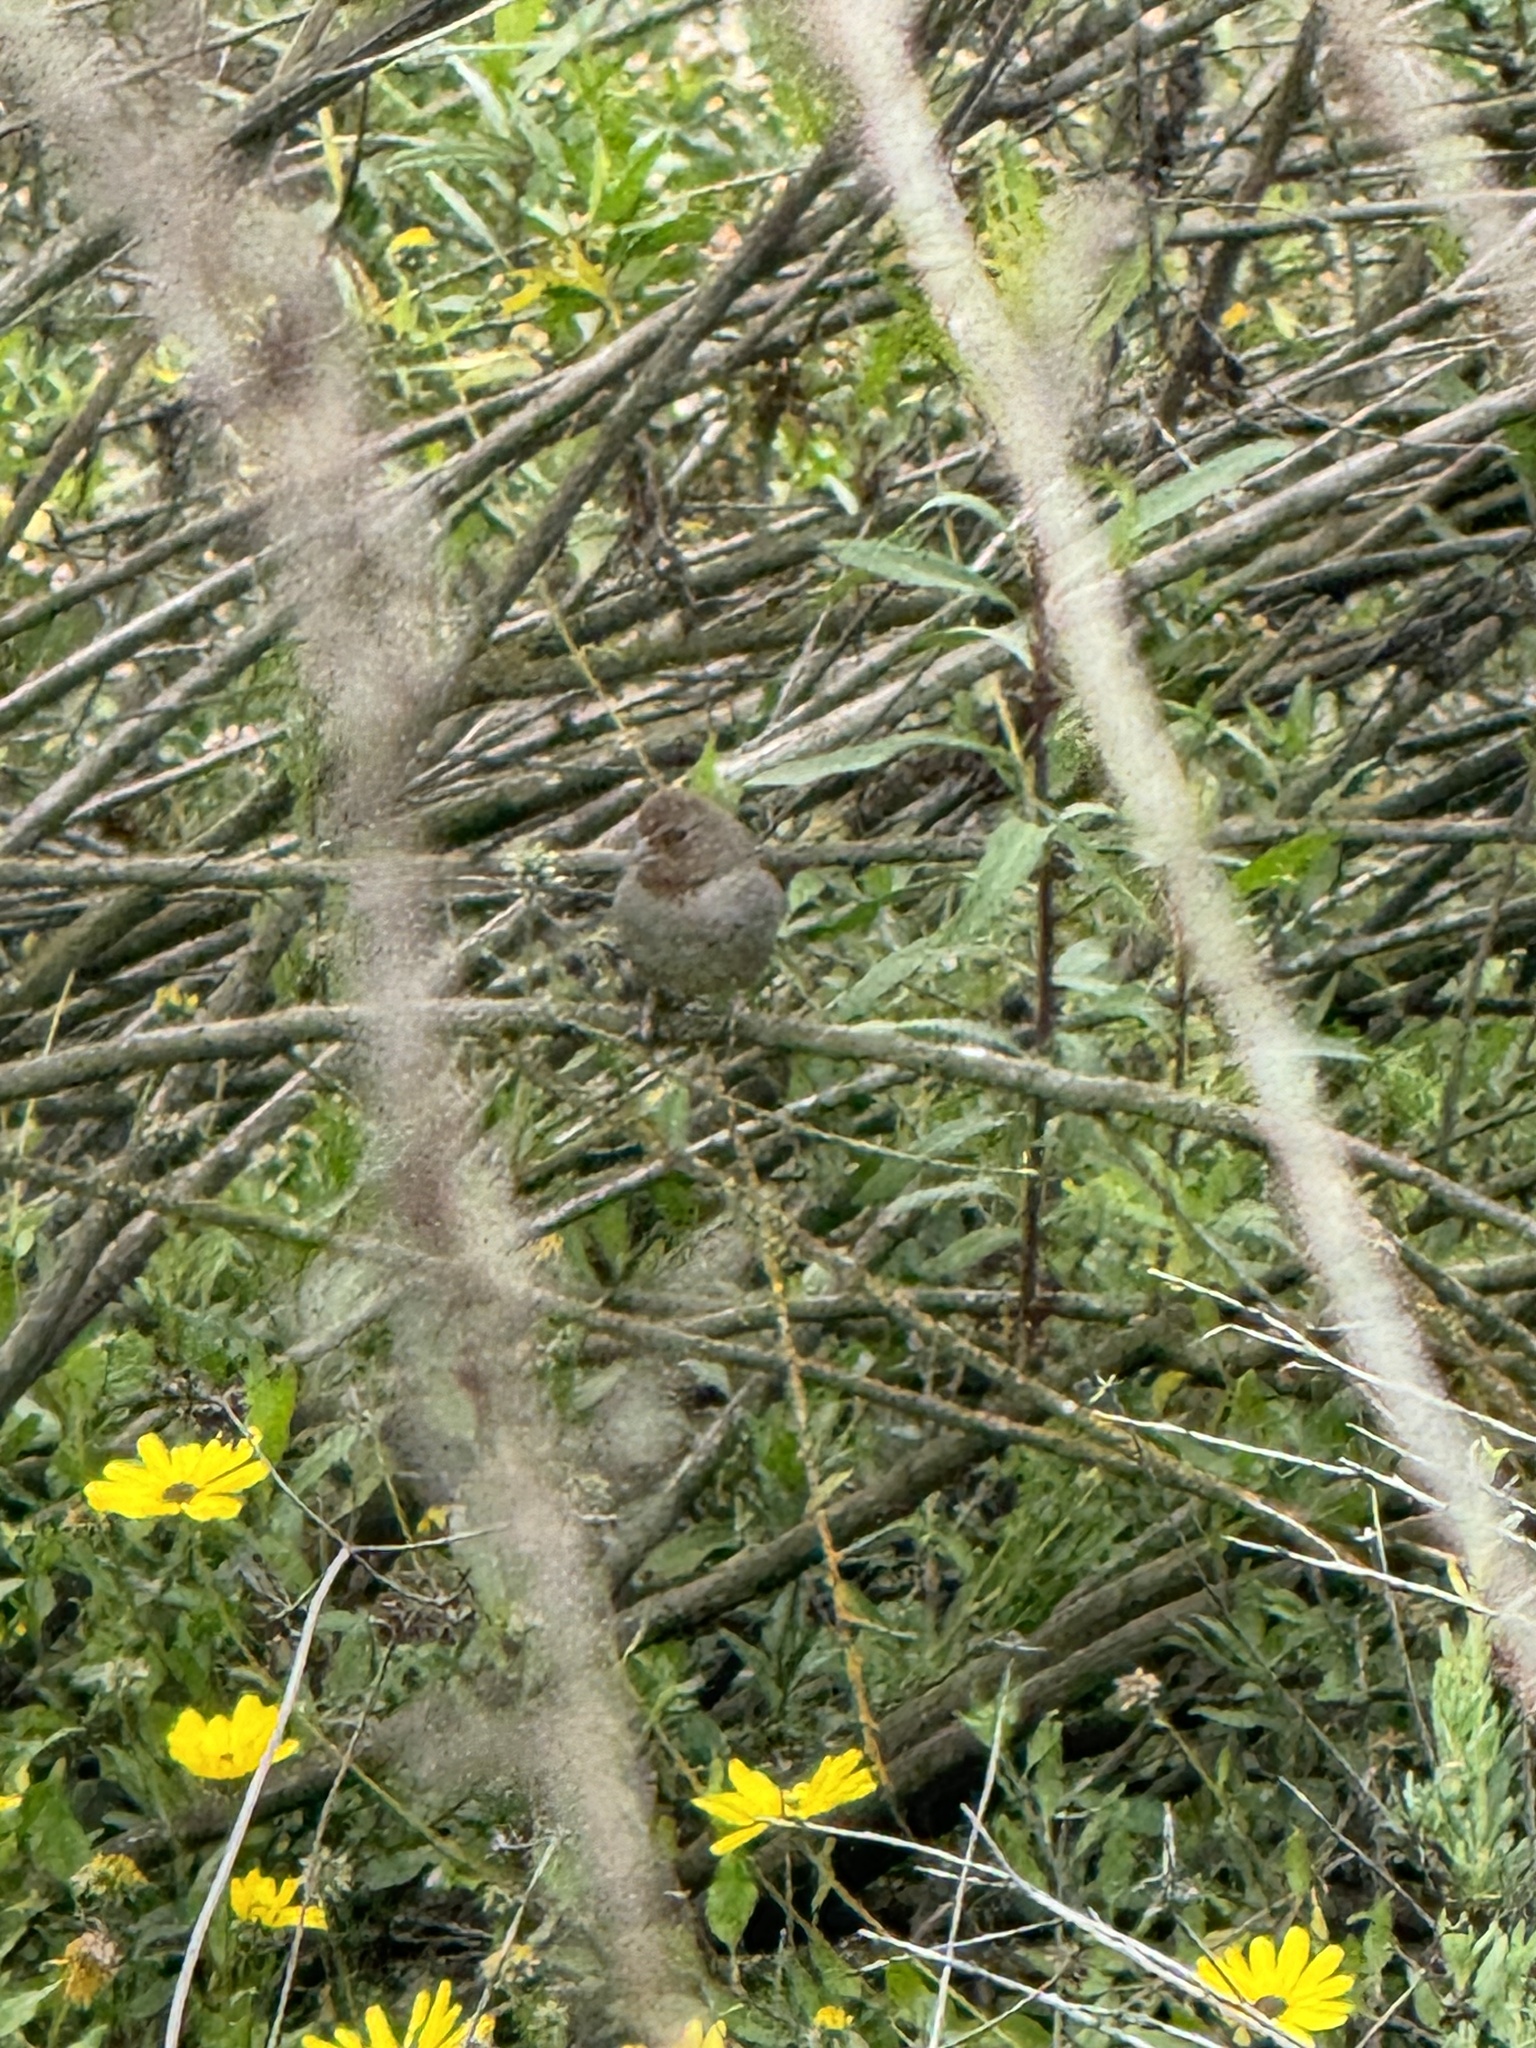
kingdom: Animalia
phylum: Chordata
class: Aves
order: Passeriformes
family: Passerellidae
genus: Melozone
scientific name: Melozone crissalis
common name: California towhee
